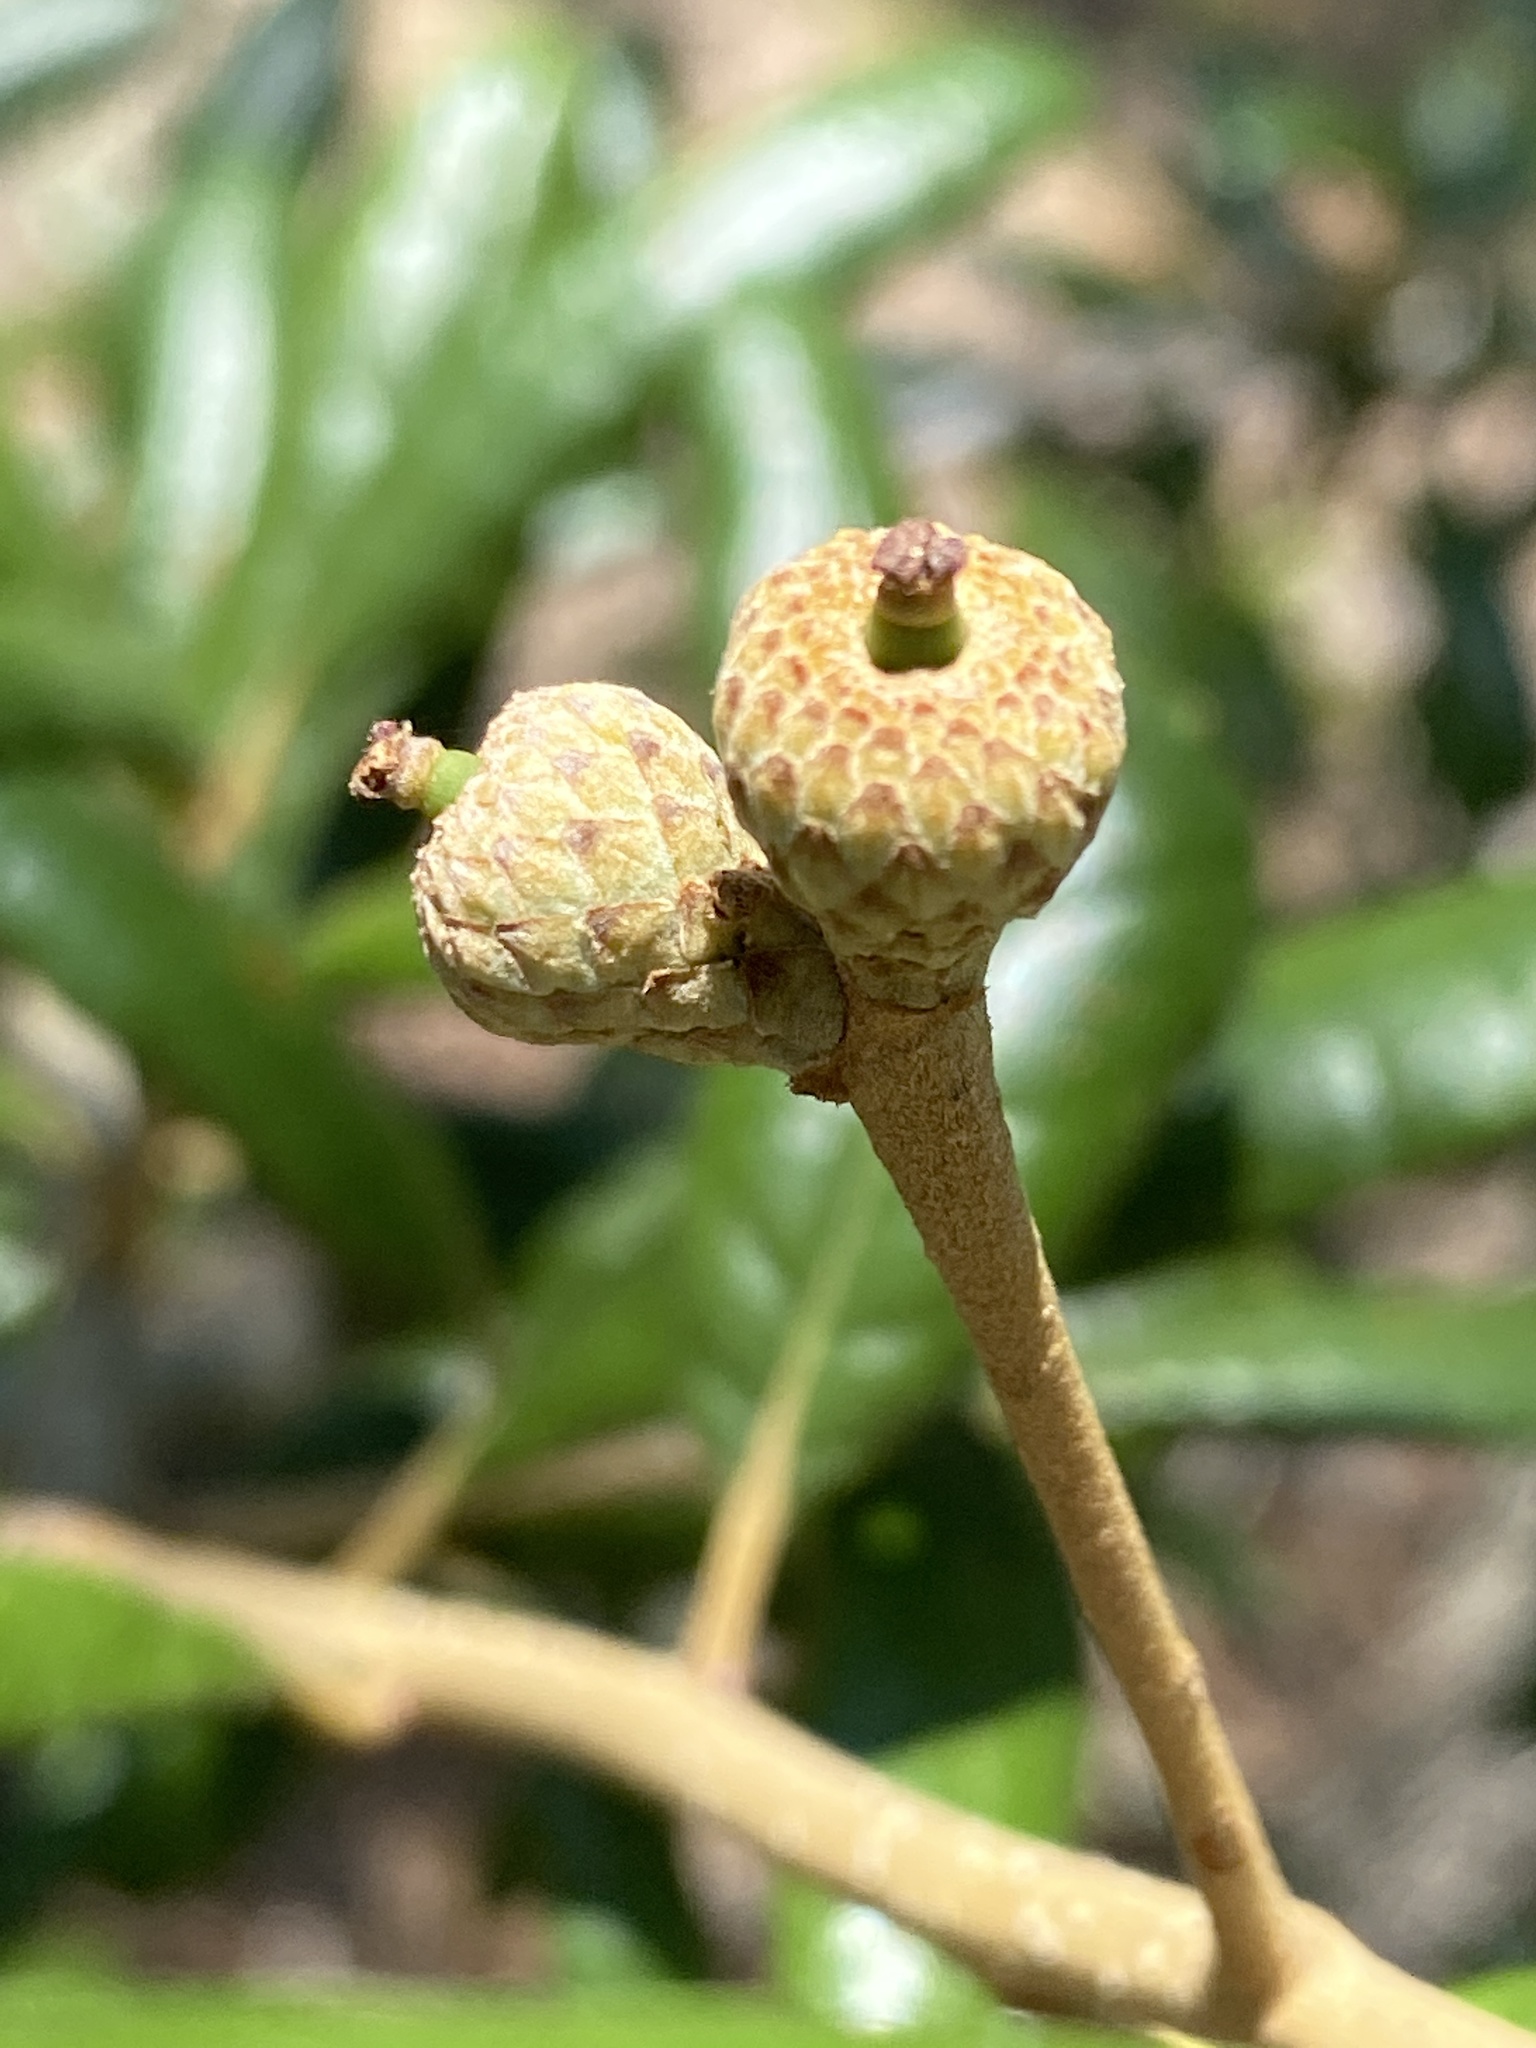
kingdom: Plantae
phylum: Tracheophyta
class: Magnoliopsida
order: Fagales
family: Fagaceae
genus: Quercus
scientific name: Quercus geminata
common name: Sand live oak
